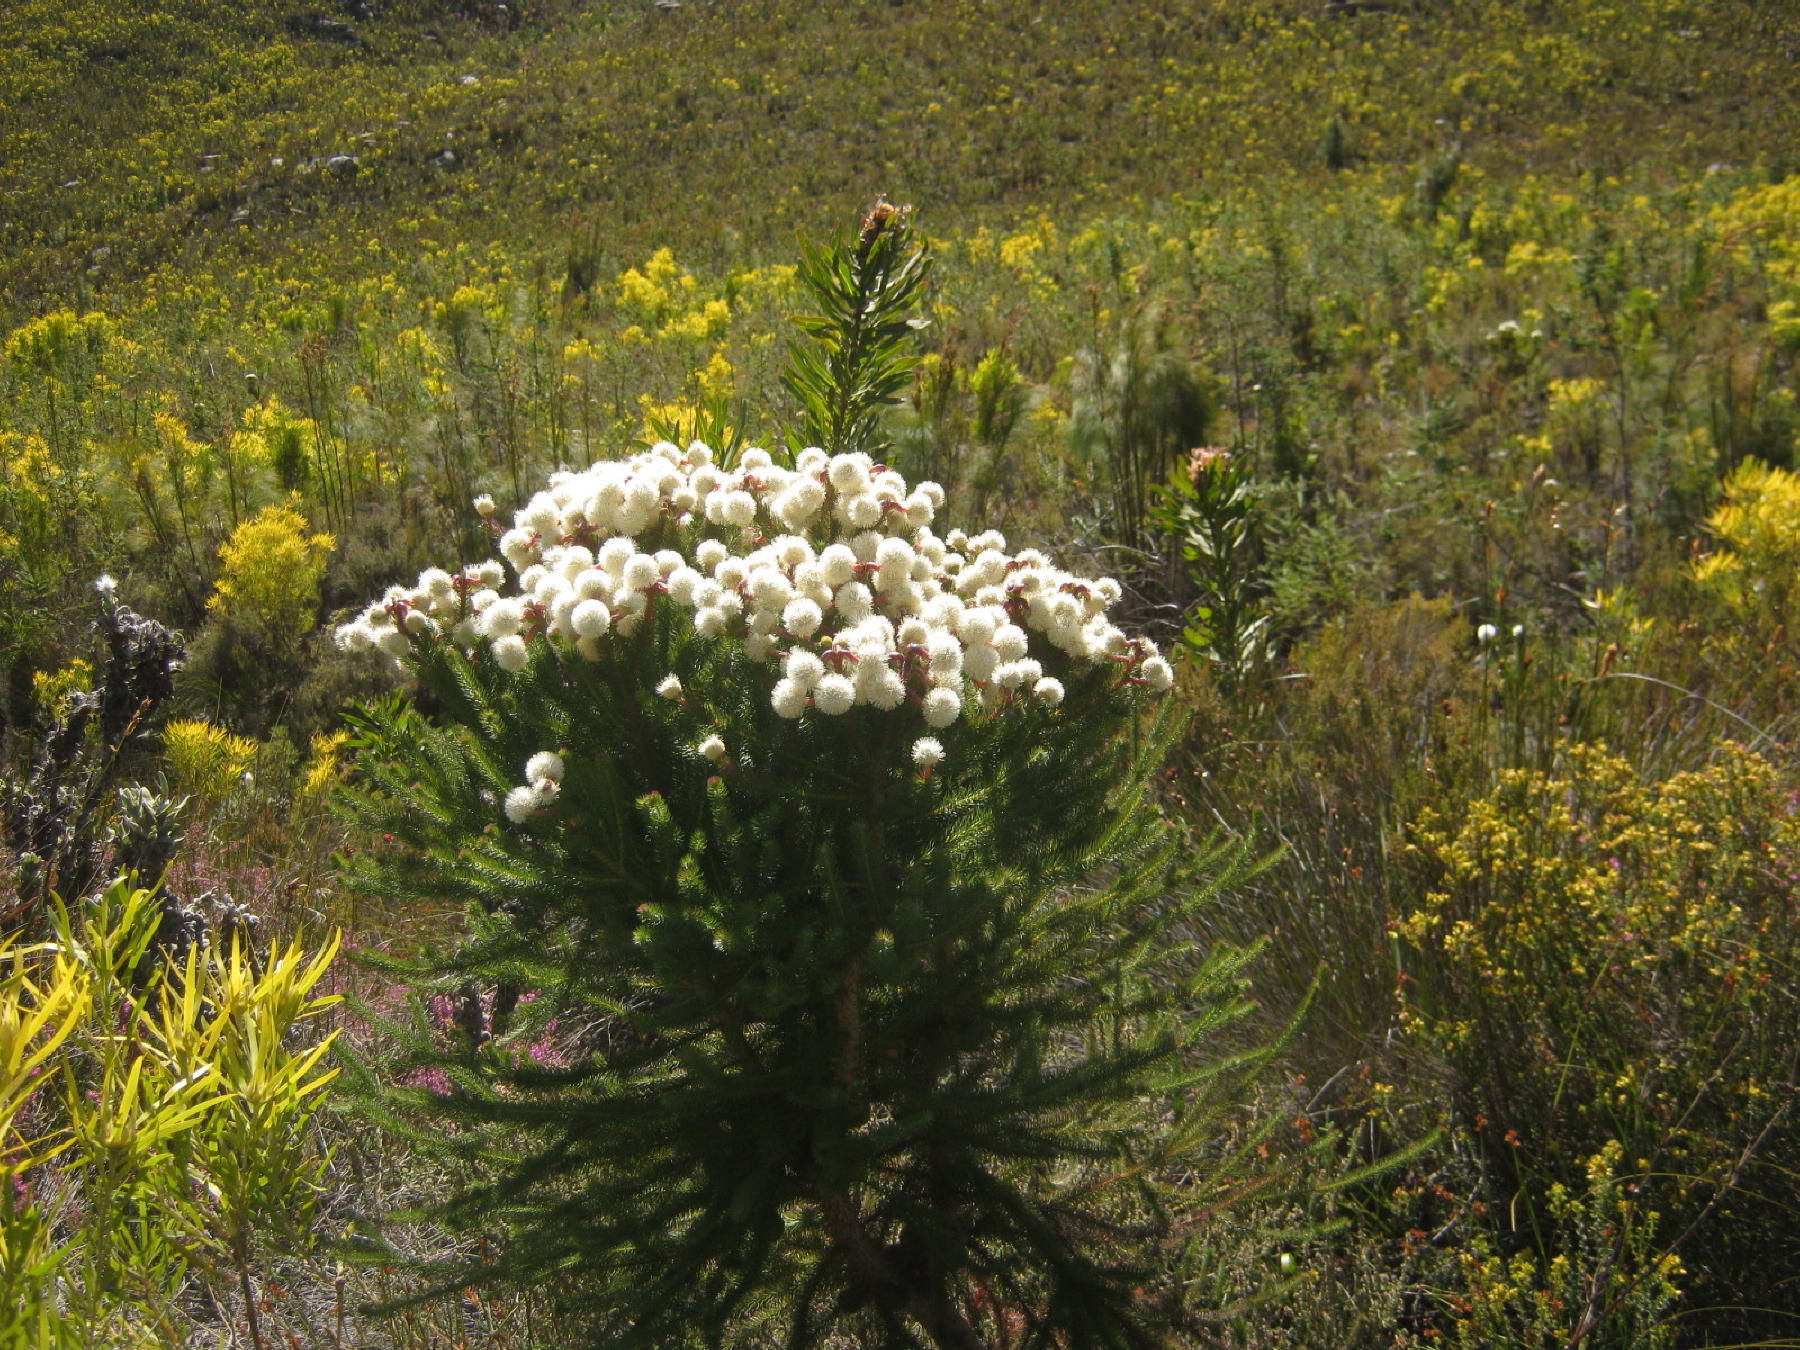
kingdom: Plantae
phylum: Tracheophyta
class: Magnoliopsida
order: Bruniales
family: Bruniaceae
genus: Berzelia
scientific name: Berzelia abrotanoides
